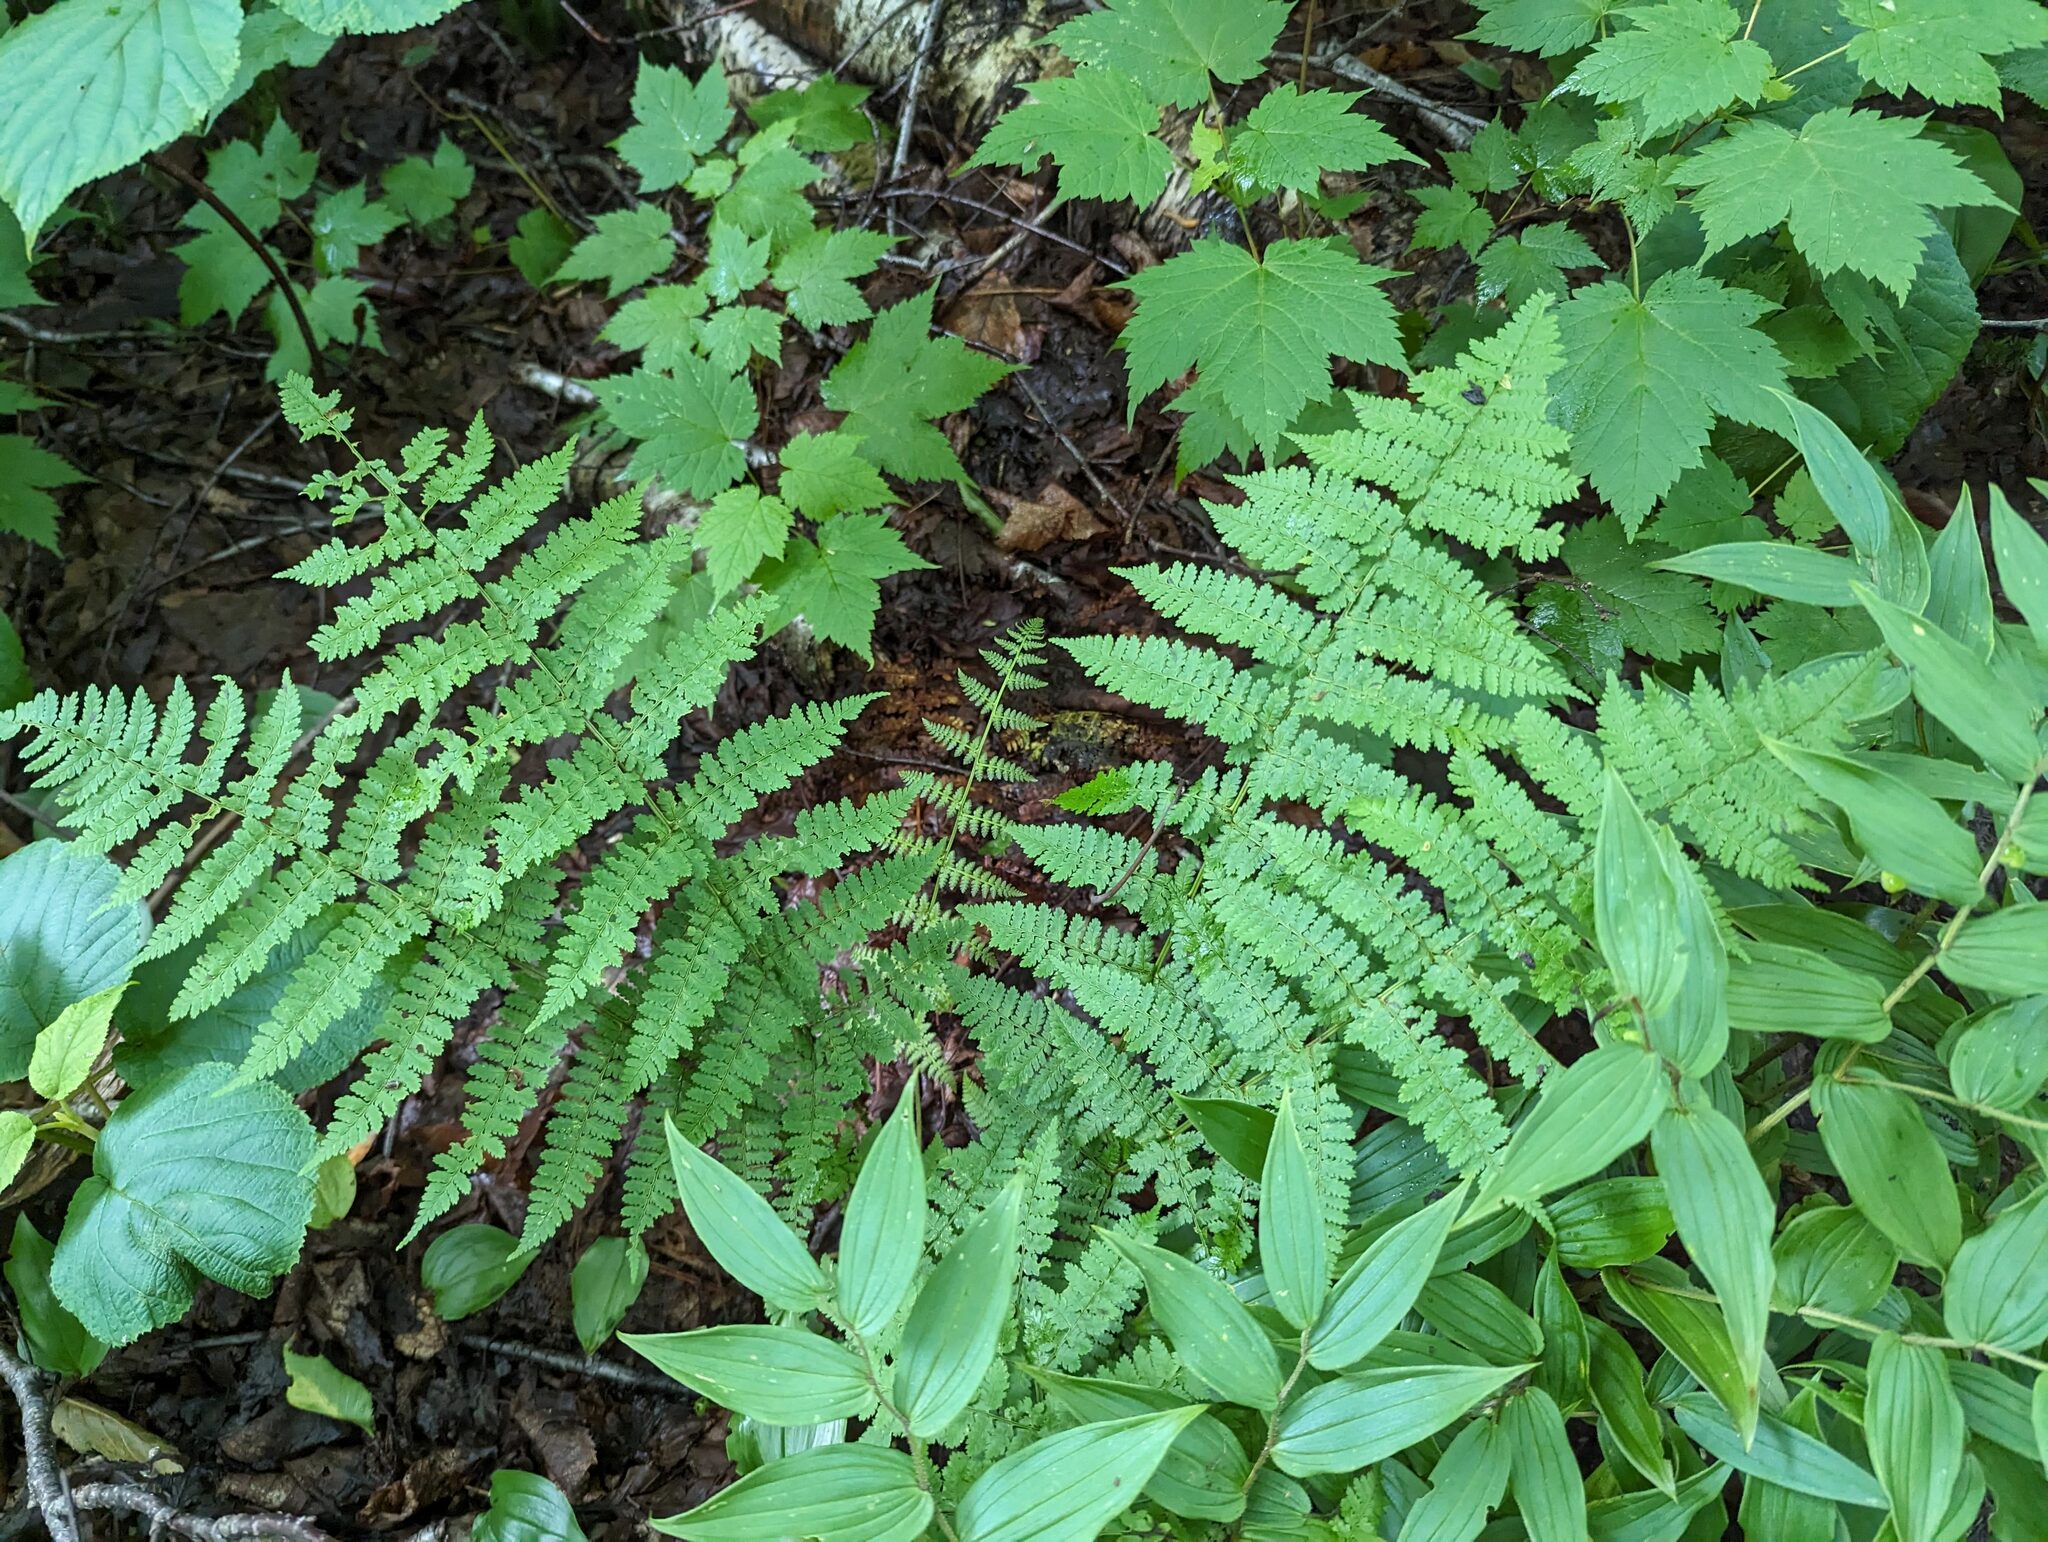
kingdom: Plantae
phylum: Tracheophyta
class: Polypodiopsida
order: Polypodiales
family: Dryopteridaceae
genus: Dryopteris
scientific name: Dryopteris intermedia
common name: Evergreen wood fern
